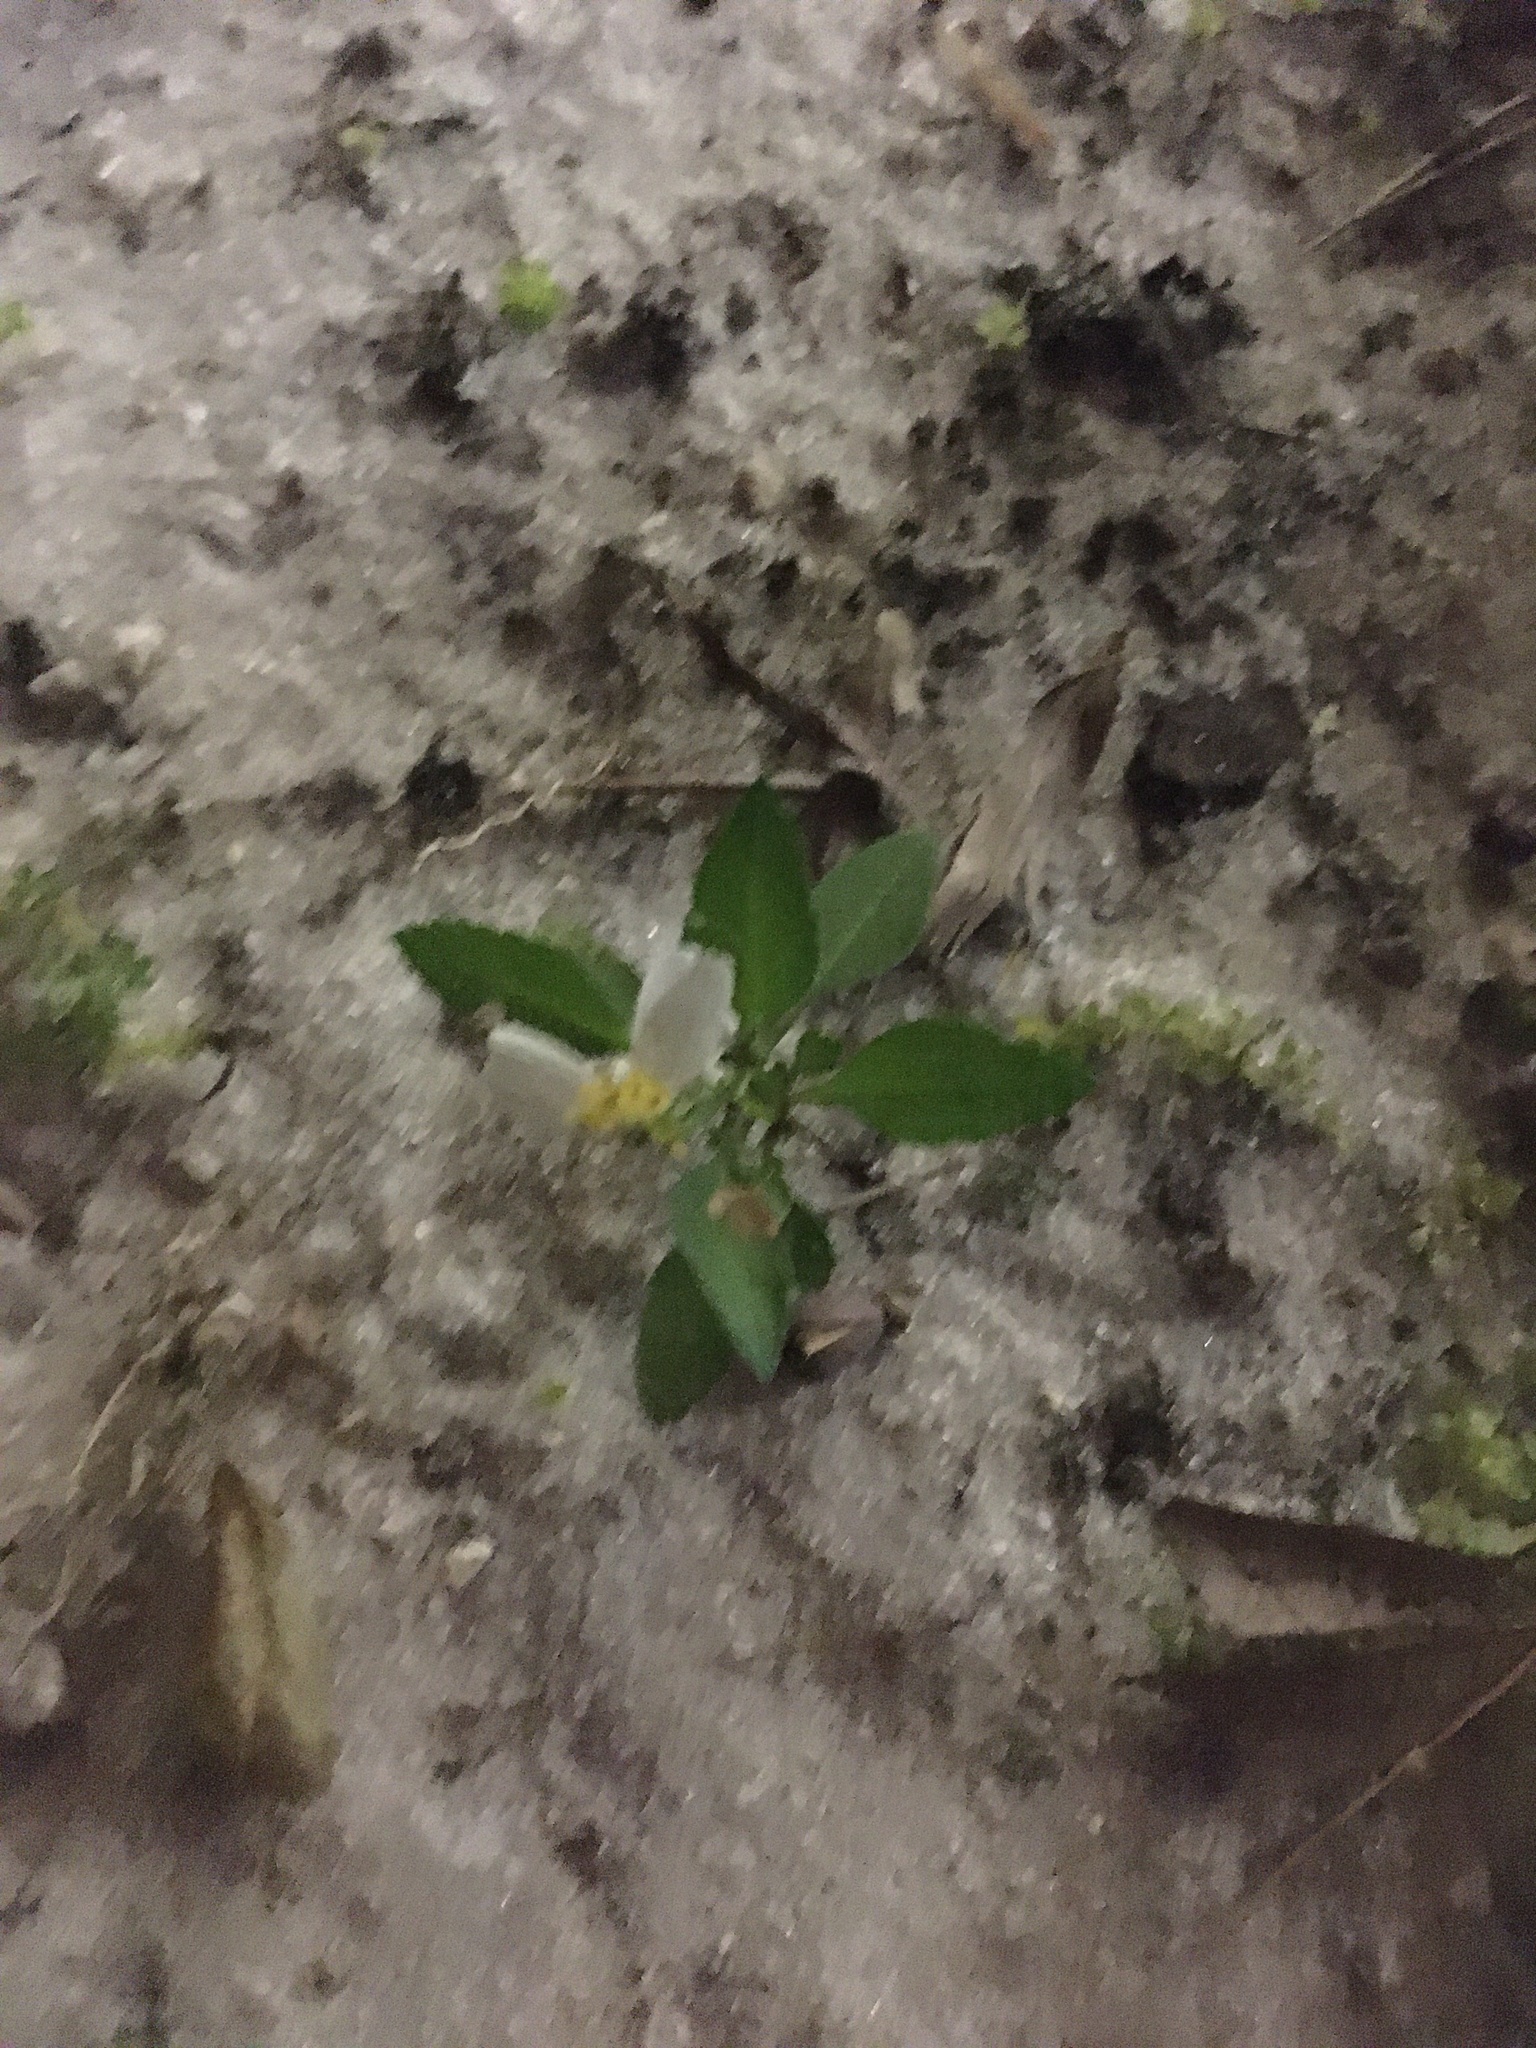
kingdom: Plantae
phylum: Tracheophyta
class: Magnoliopsida
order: Asterales
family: Asteraceae
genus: Bidens
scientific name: Bidens alba
